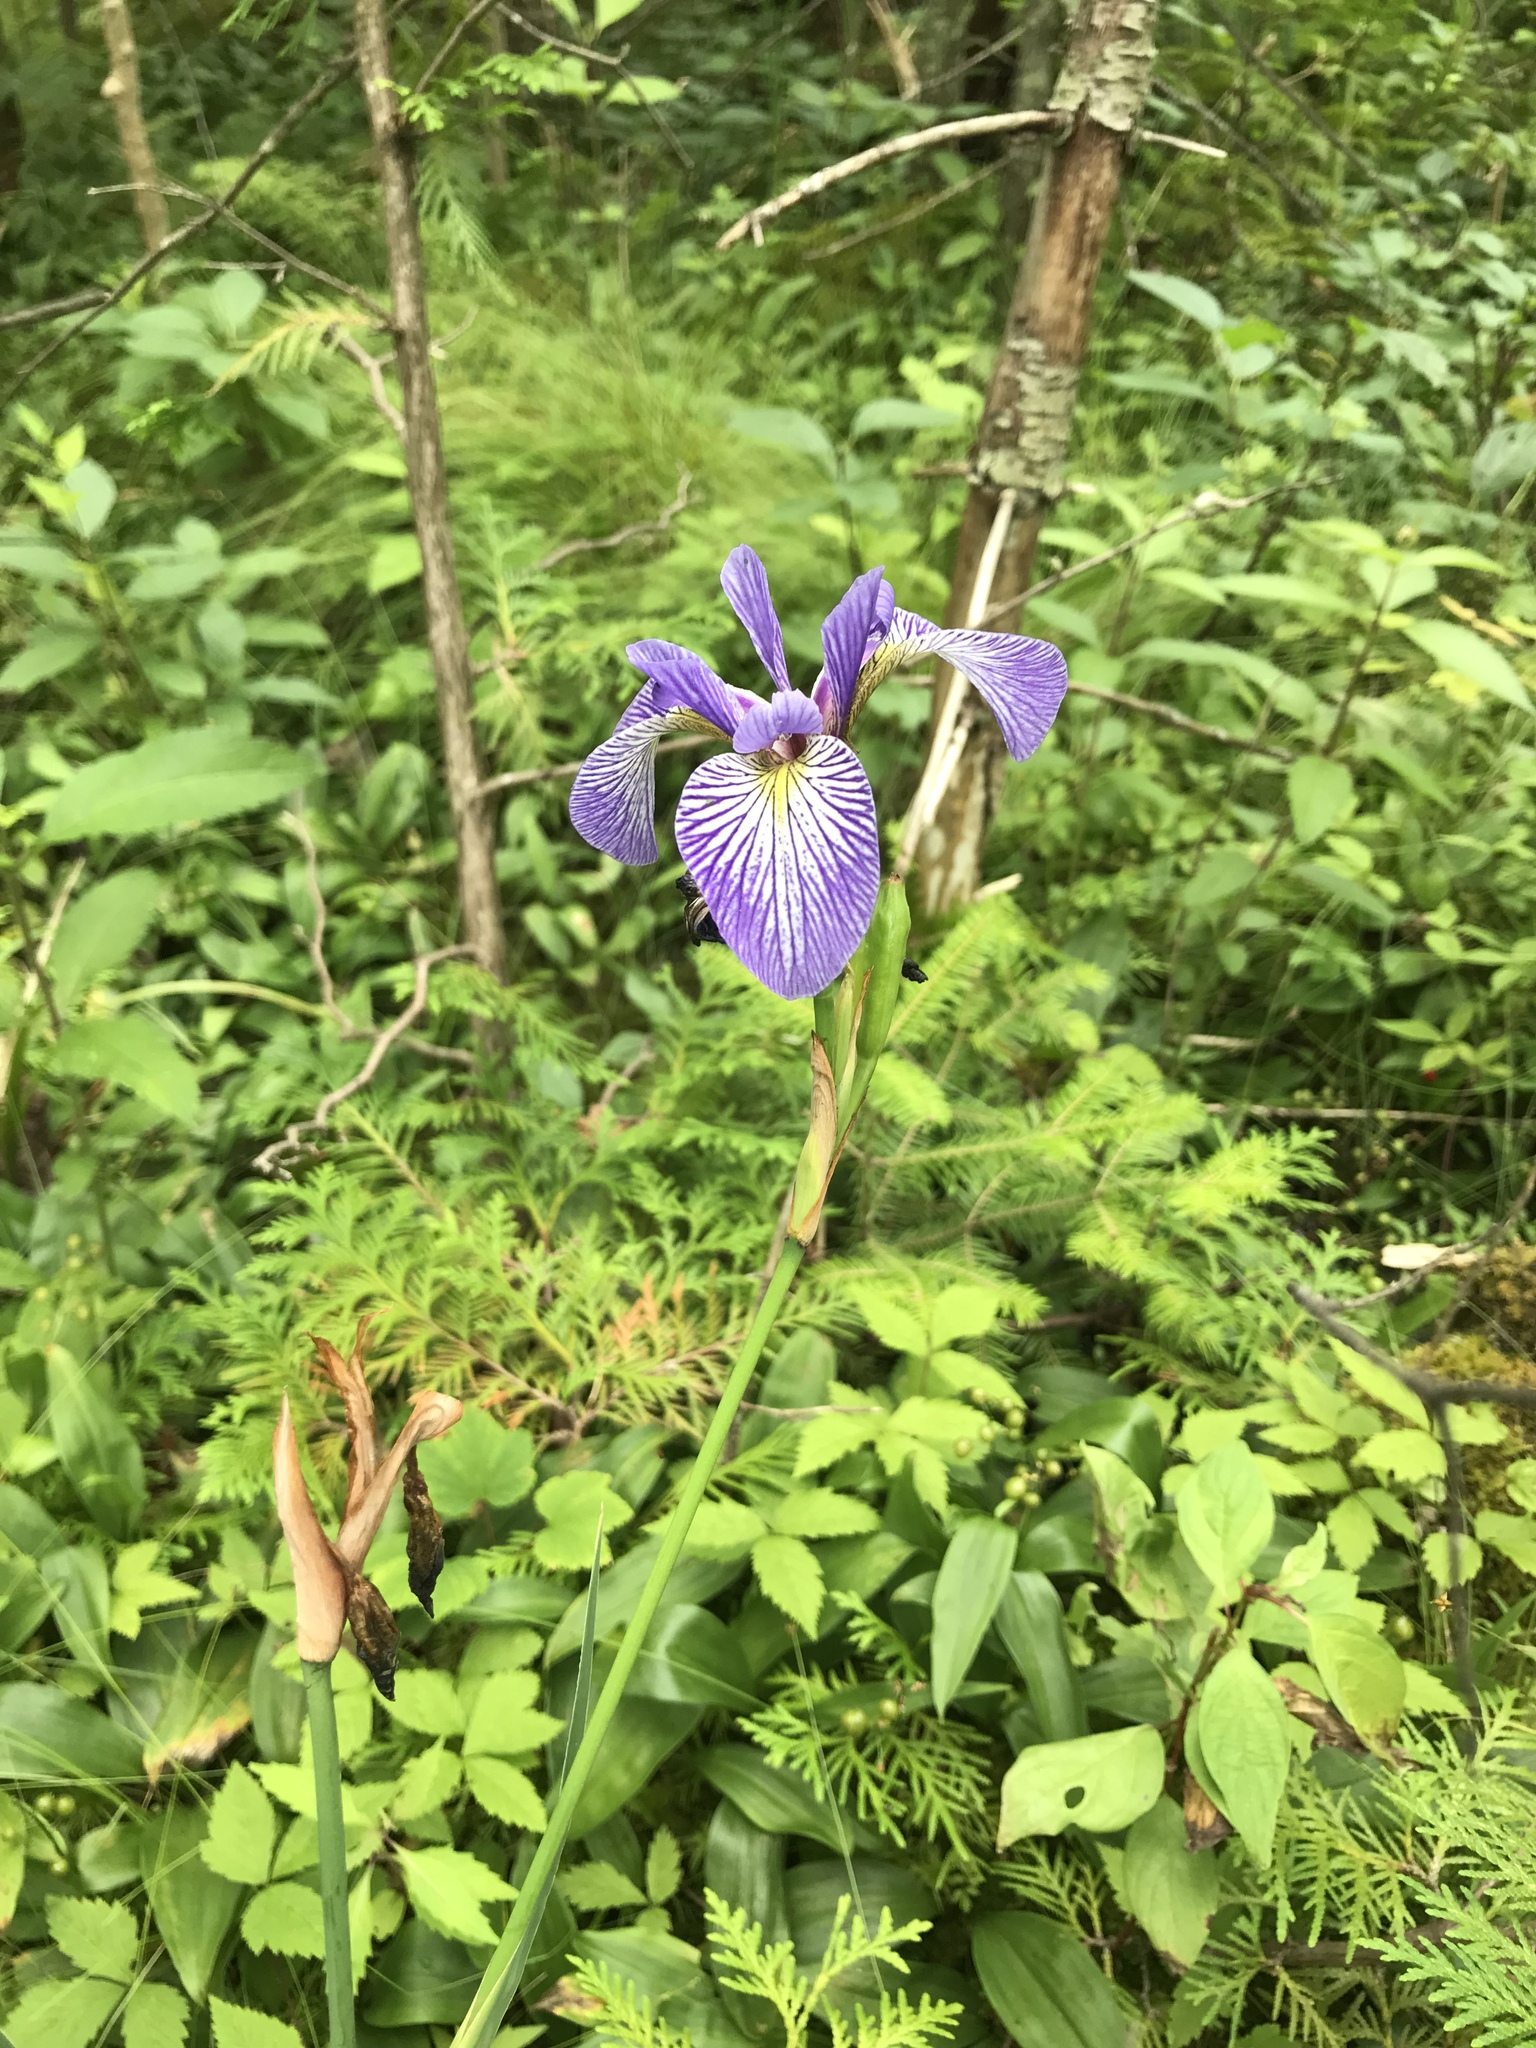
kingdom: Plantae
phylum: Tracheophyta
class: Liliopsida
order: Asparagales
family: Iridaceae
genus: Iris
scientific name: Iris versicolor
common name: Purple iris
